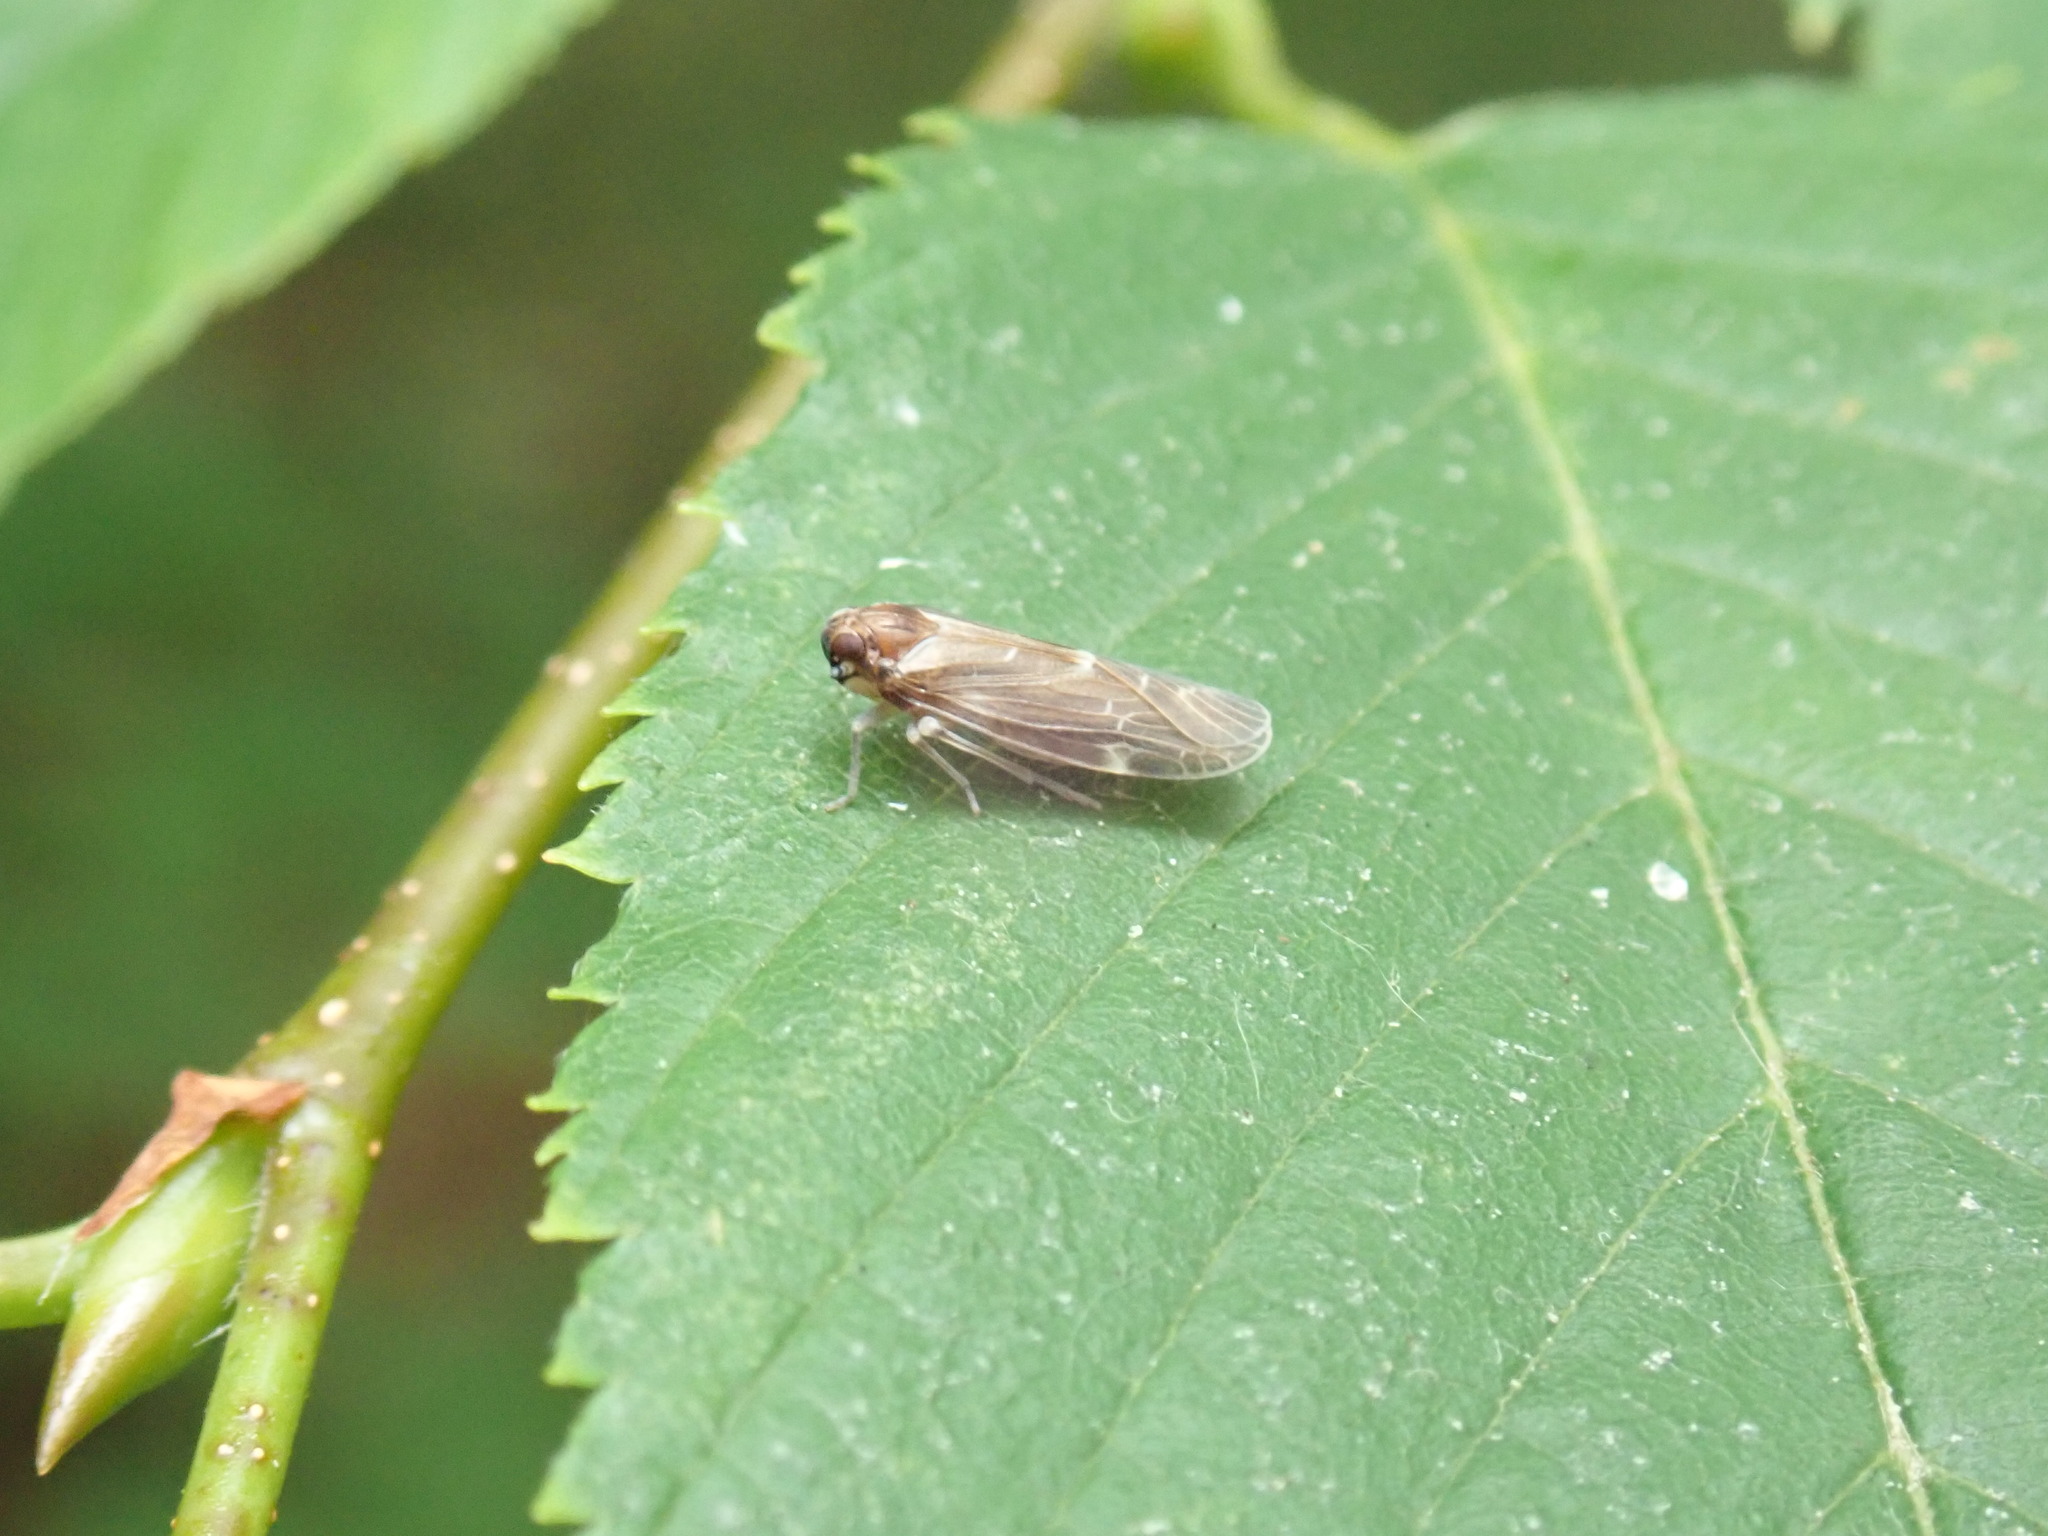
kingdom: Animalia
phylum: Arthropoda
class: Insecta
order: Hemiptera
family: Achilidae
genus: Synecdoche
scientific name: Synecdoche dimidiata
